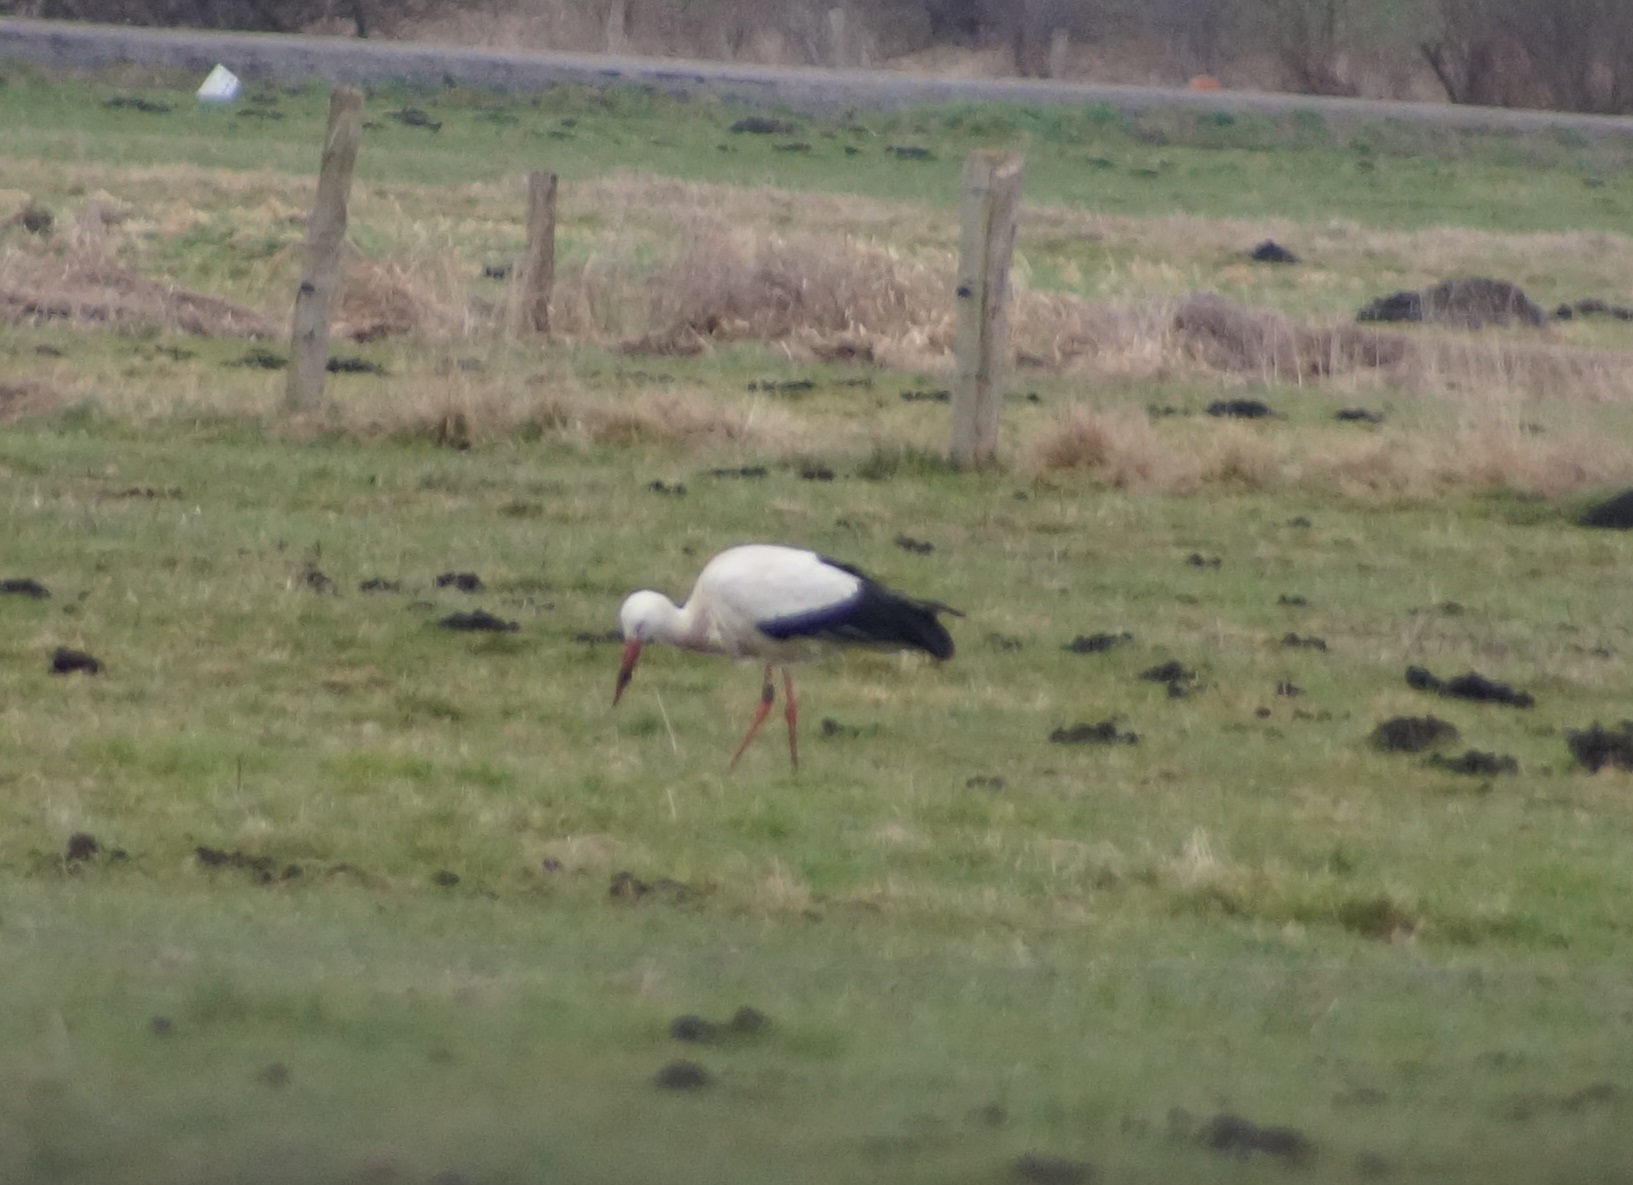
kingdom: Animalia
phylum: Chordata
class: Aves
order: Ciconiiformes
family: Ciconiidae
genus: Ciconia
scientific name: Ciconia ciconia
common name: White stork
